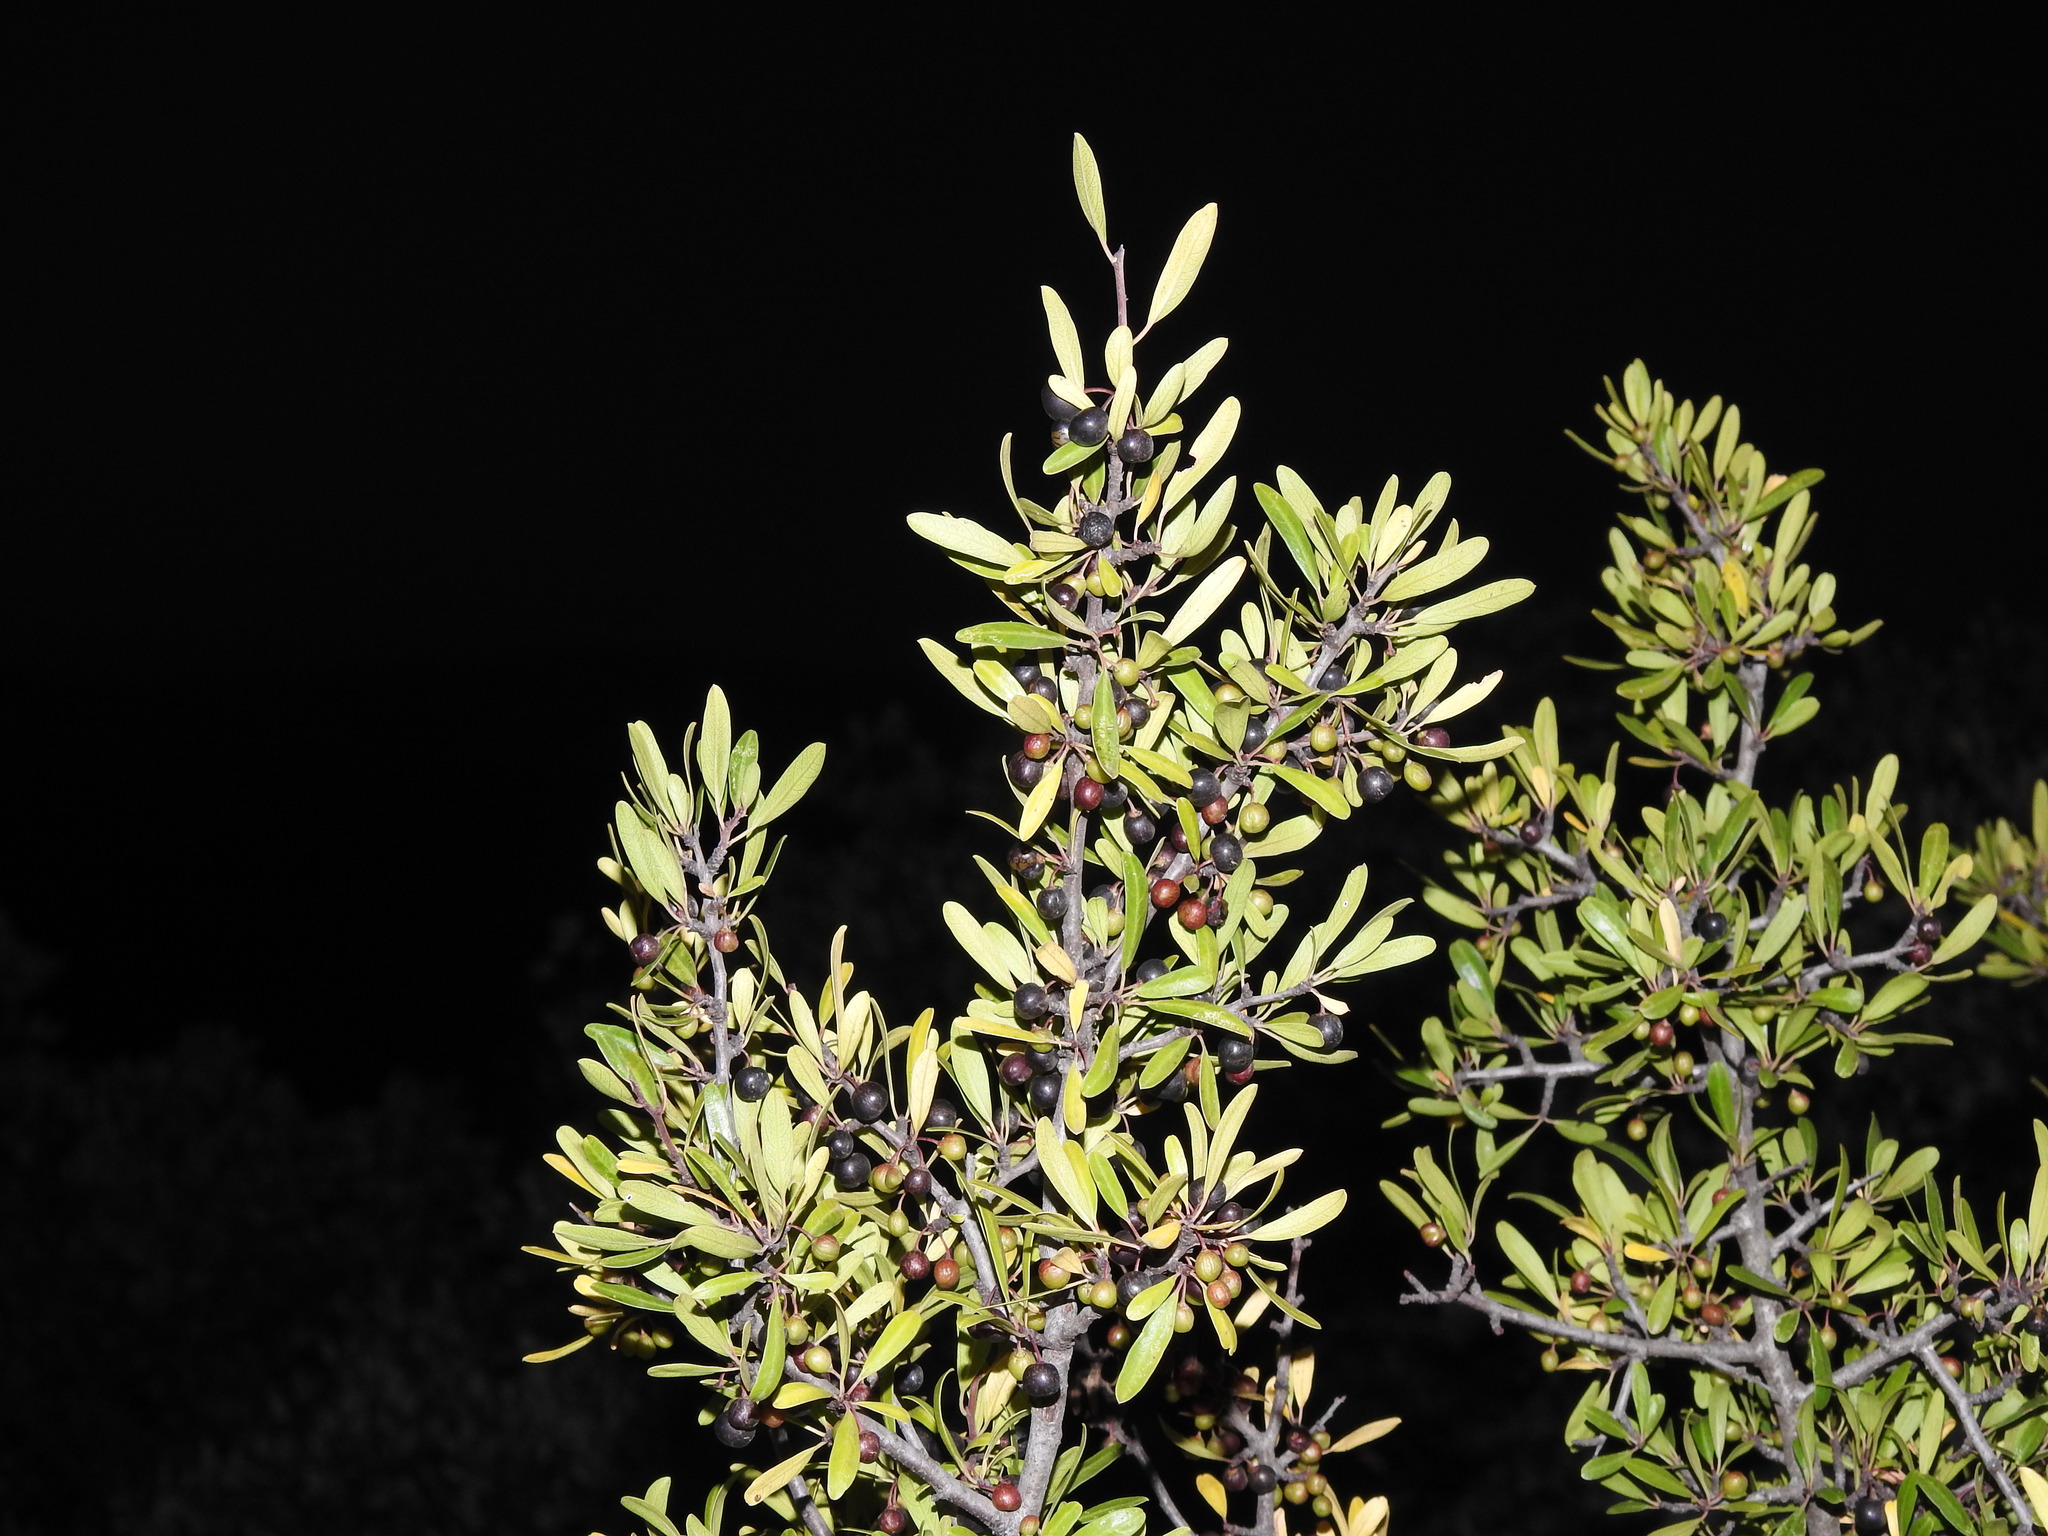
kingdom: Plantae
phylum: Tracheophyta
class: Magnoliopsida
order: Rosales
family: Rhamnaceae
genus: Rhamnus
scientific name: Rhamnus oleoides
